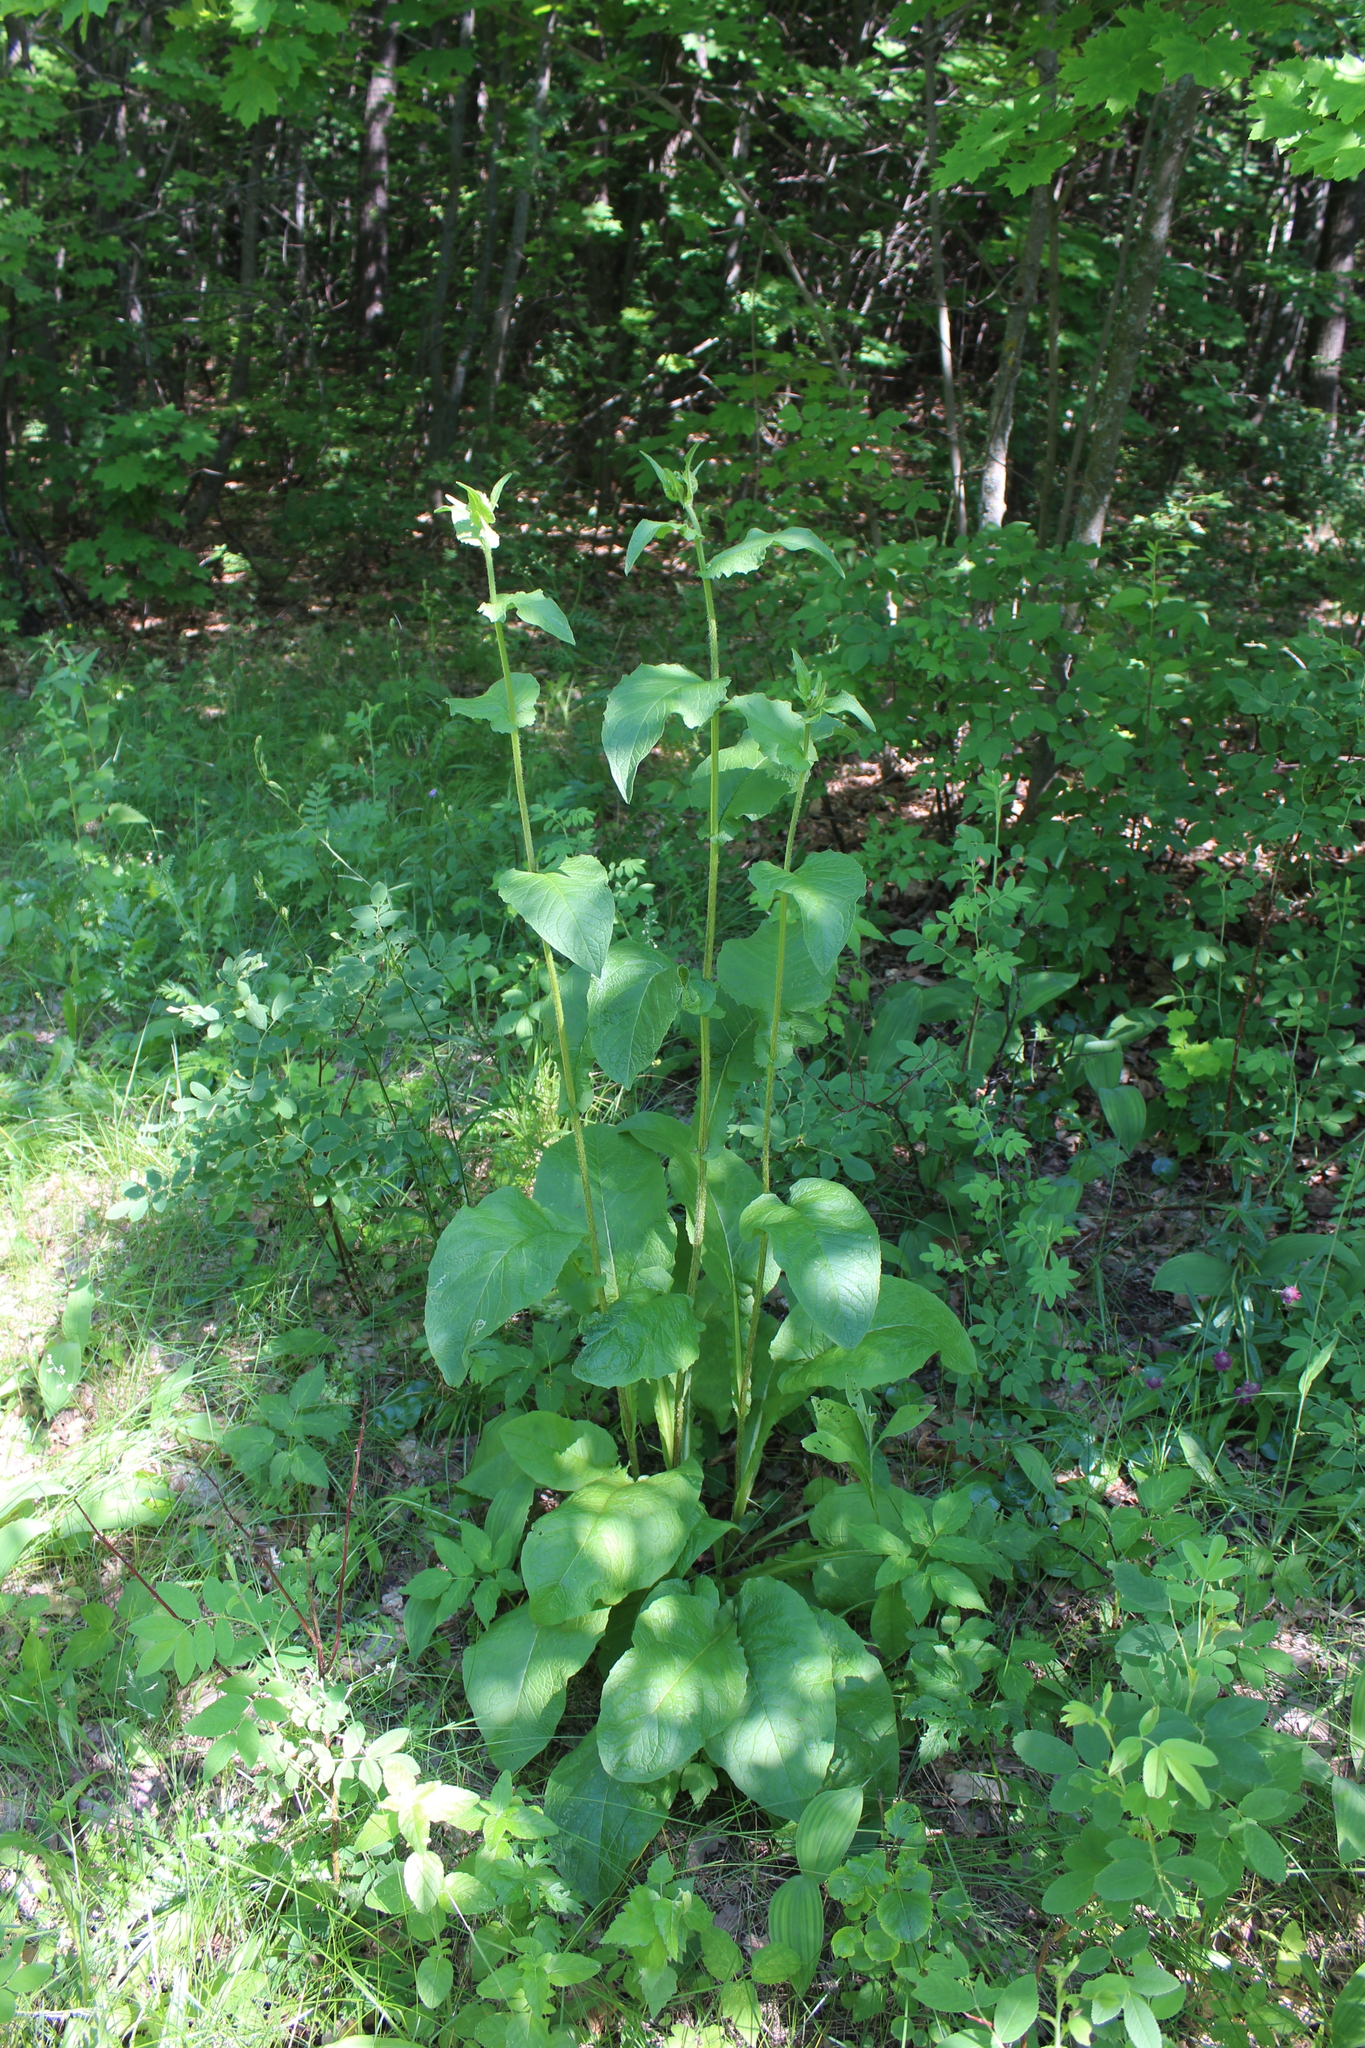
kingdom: Plantae
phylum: Tracheophyta
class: Magnoliopsida
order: Asterales
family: Asteraceae
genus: Crepis
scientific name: Crepis sibirica
